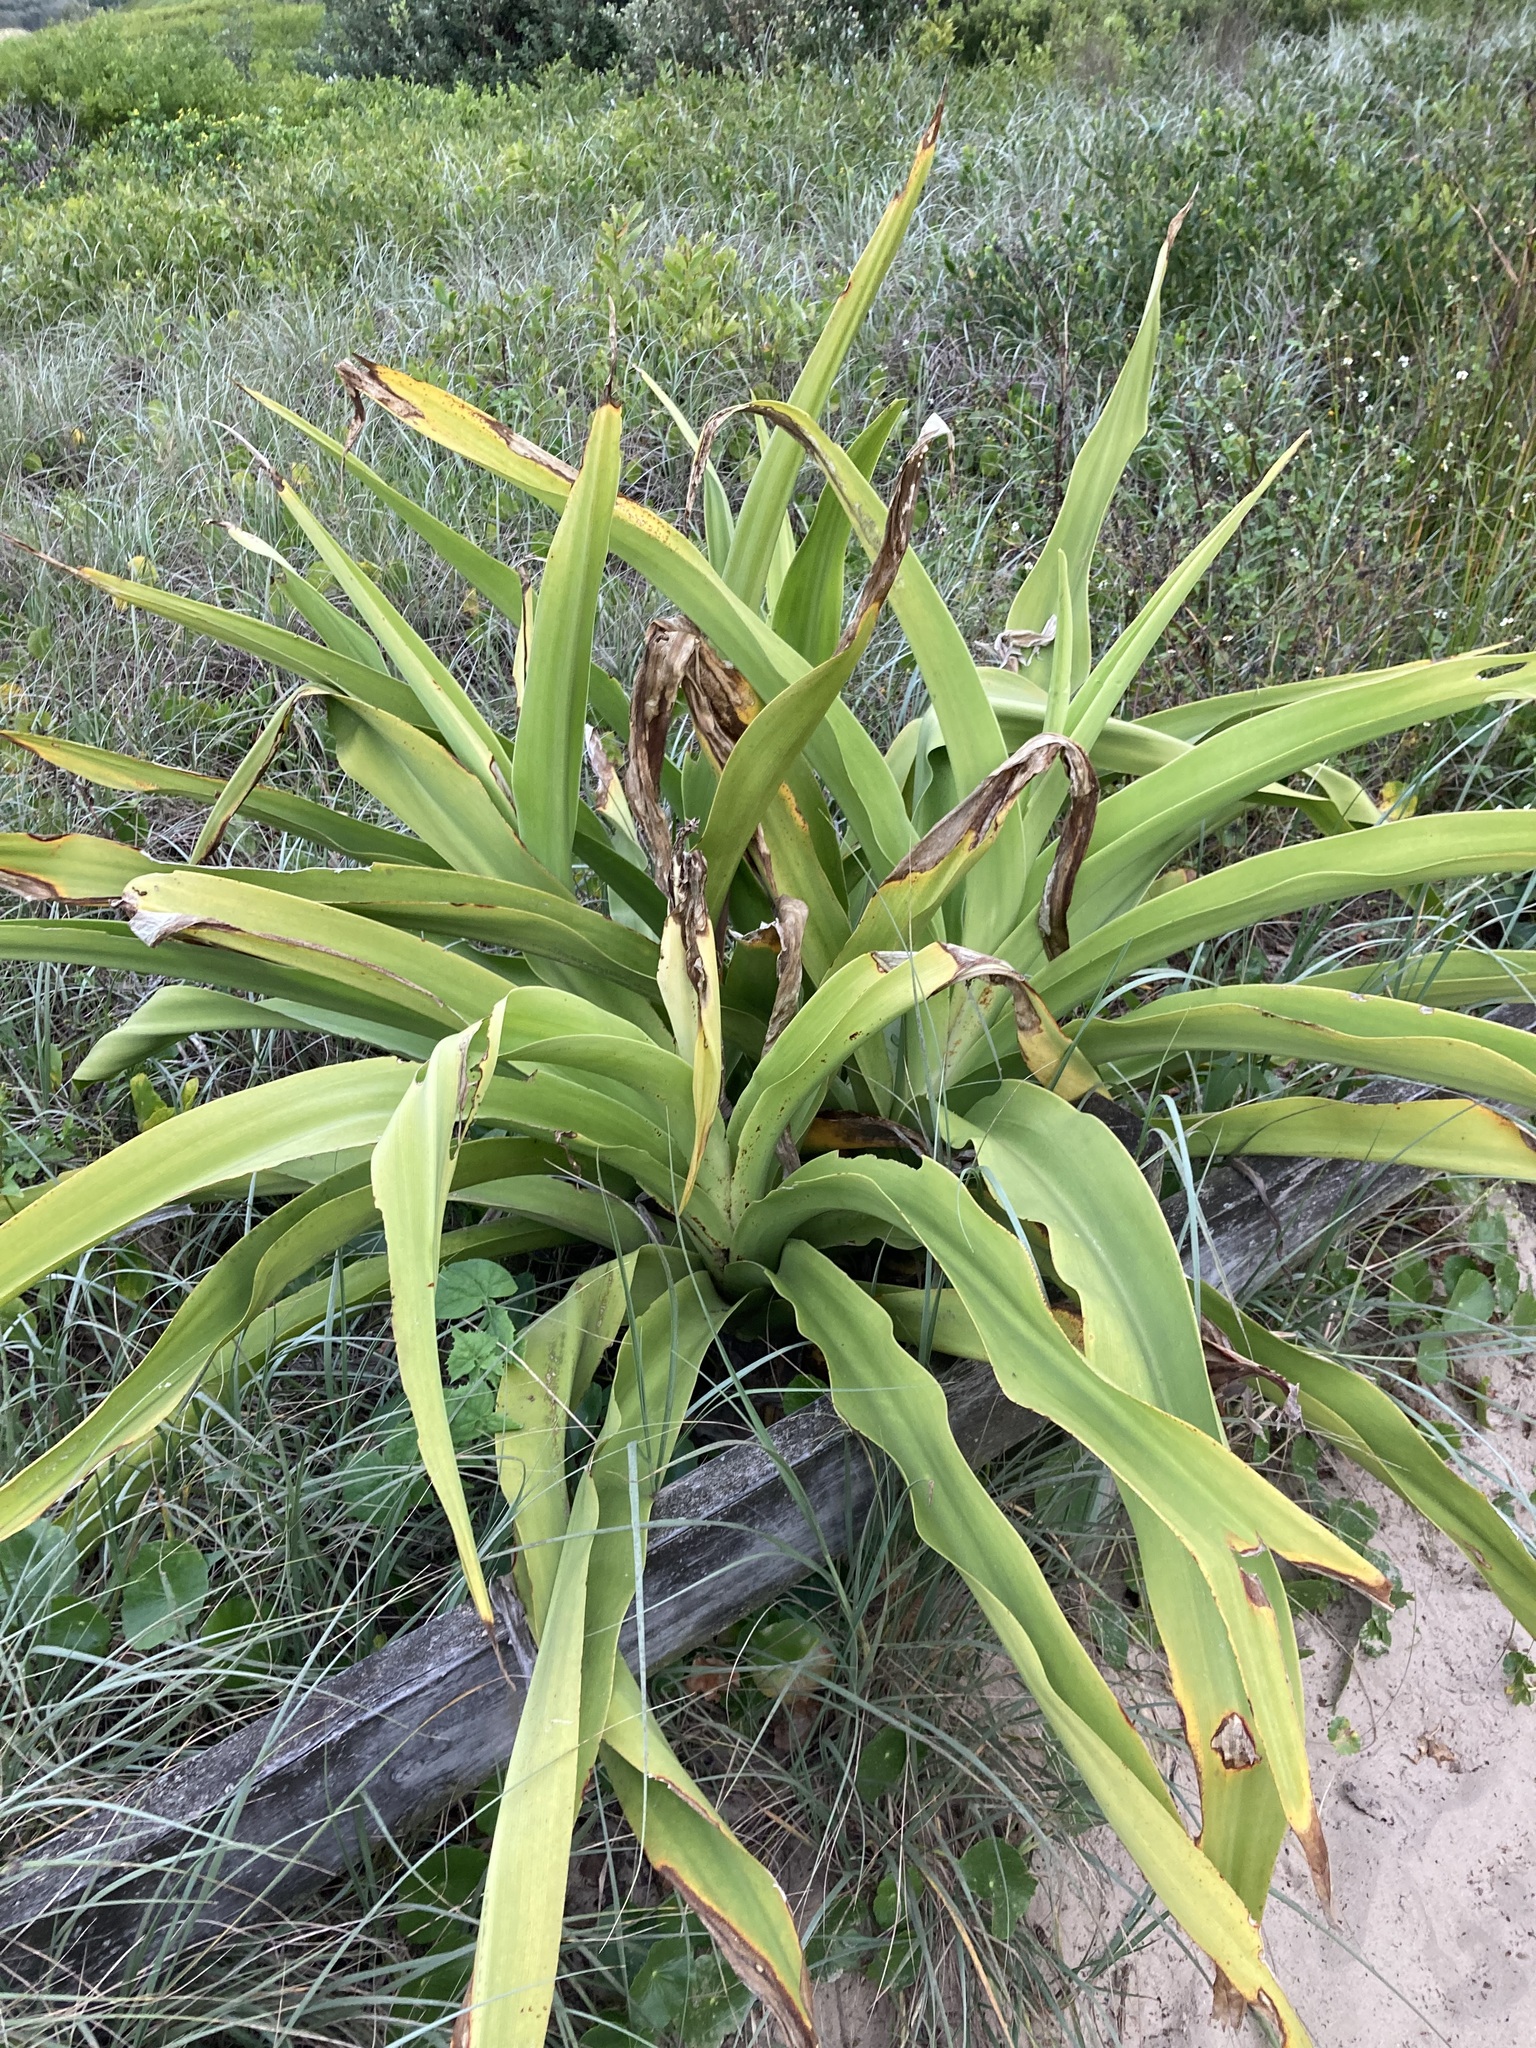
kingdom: Plantae
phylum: Tracheophyta
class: Liliopsida
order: Asparagales
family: Amaryllidaceae
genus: Crinum
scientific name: Crinum pedunculatum
